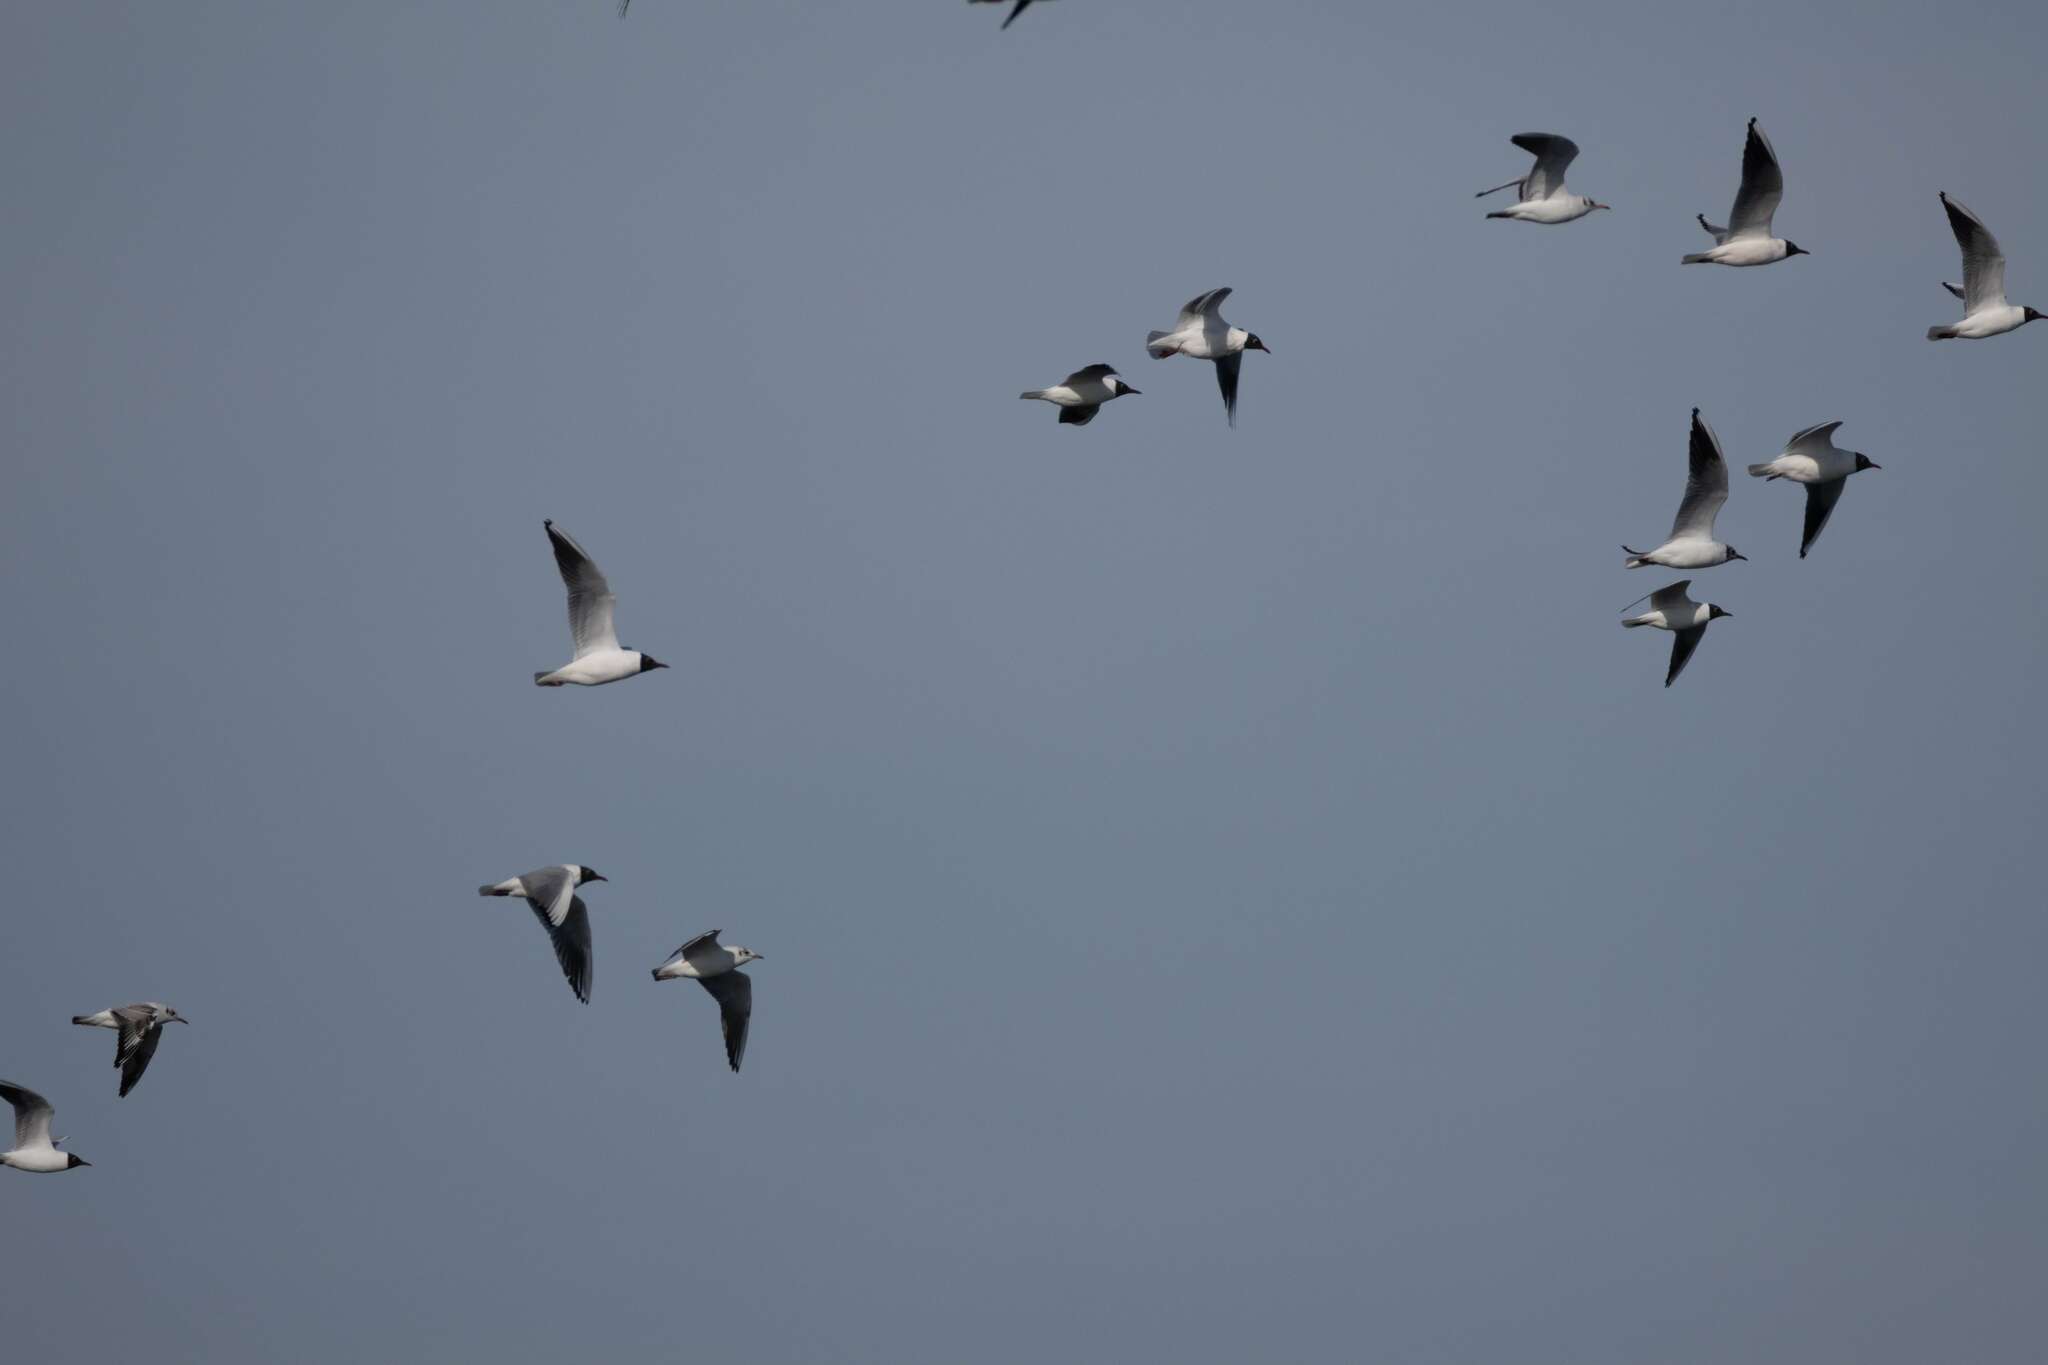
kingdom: Animalia
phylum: Chordata
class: Aves
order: Charadriiformes
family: Laridae
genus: Chroicocephalus
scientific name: Chroicocephalus ridibundus
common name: Black-headed gull
